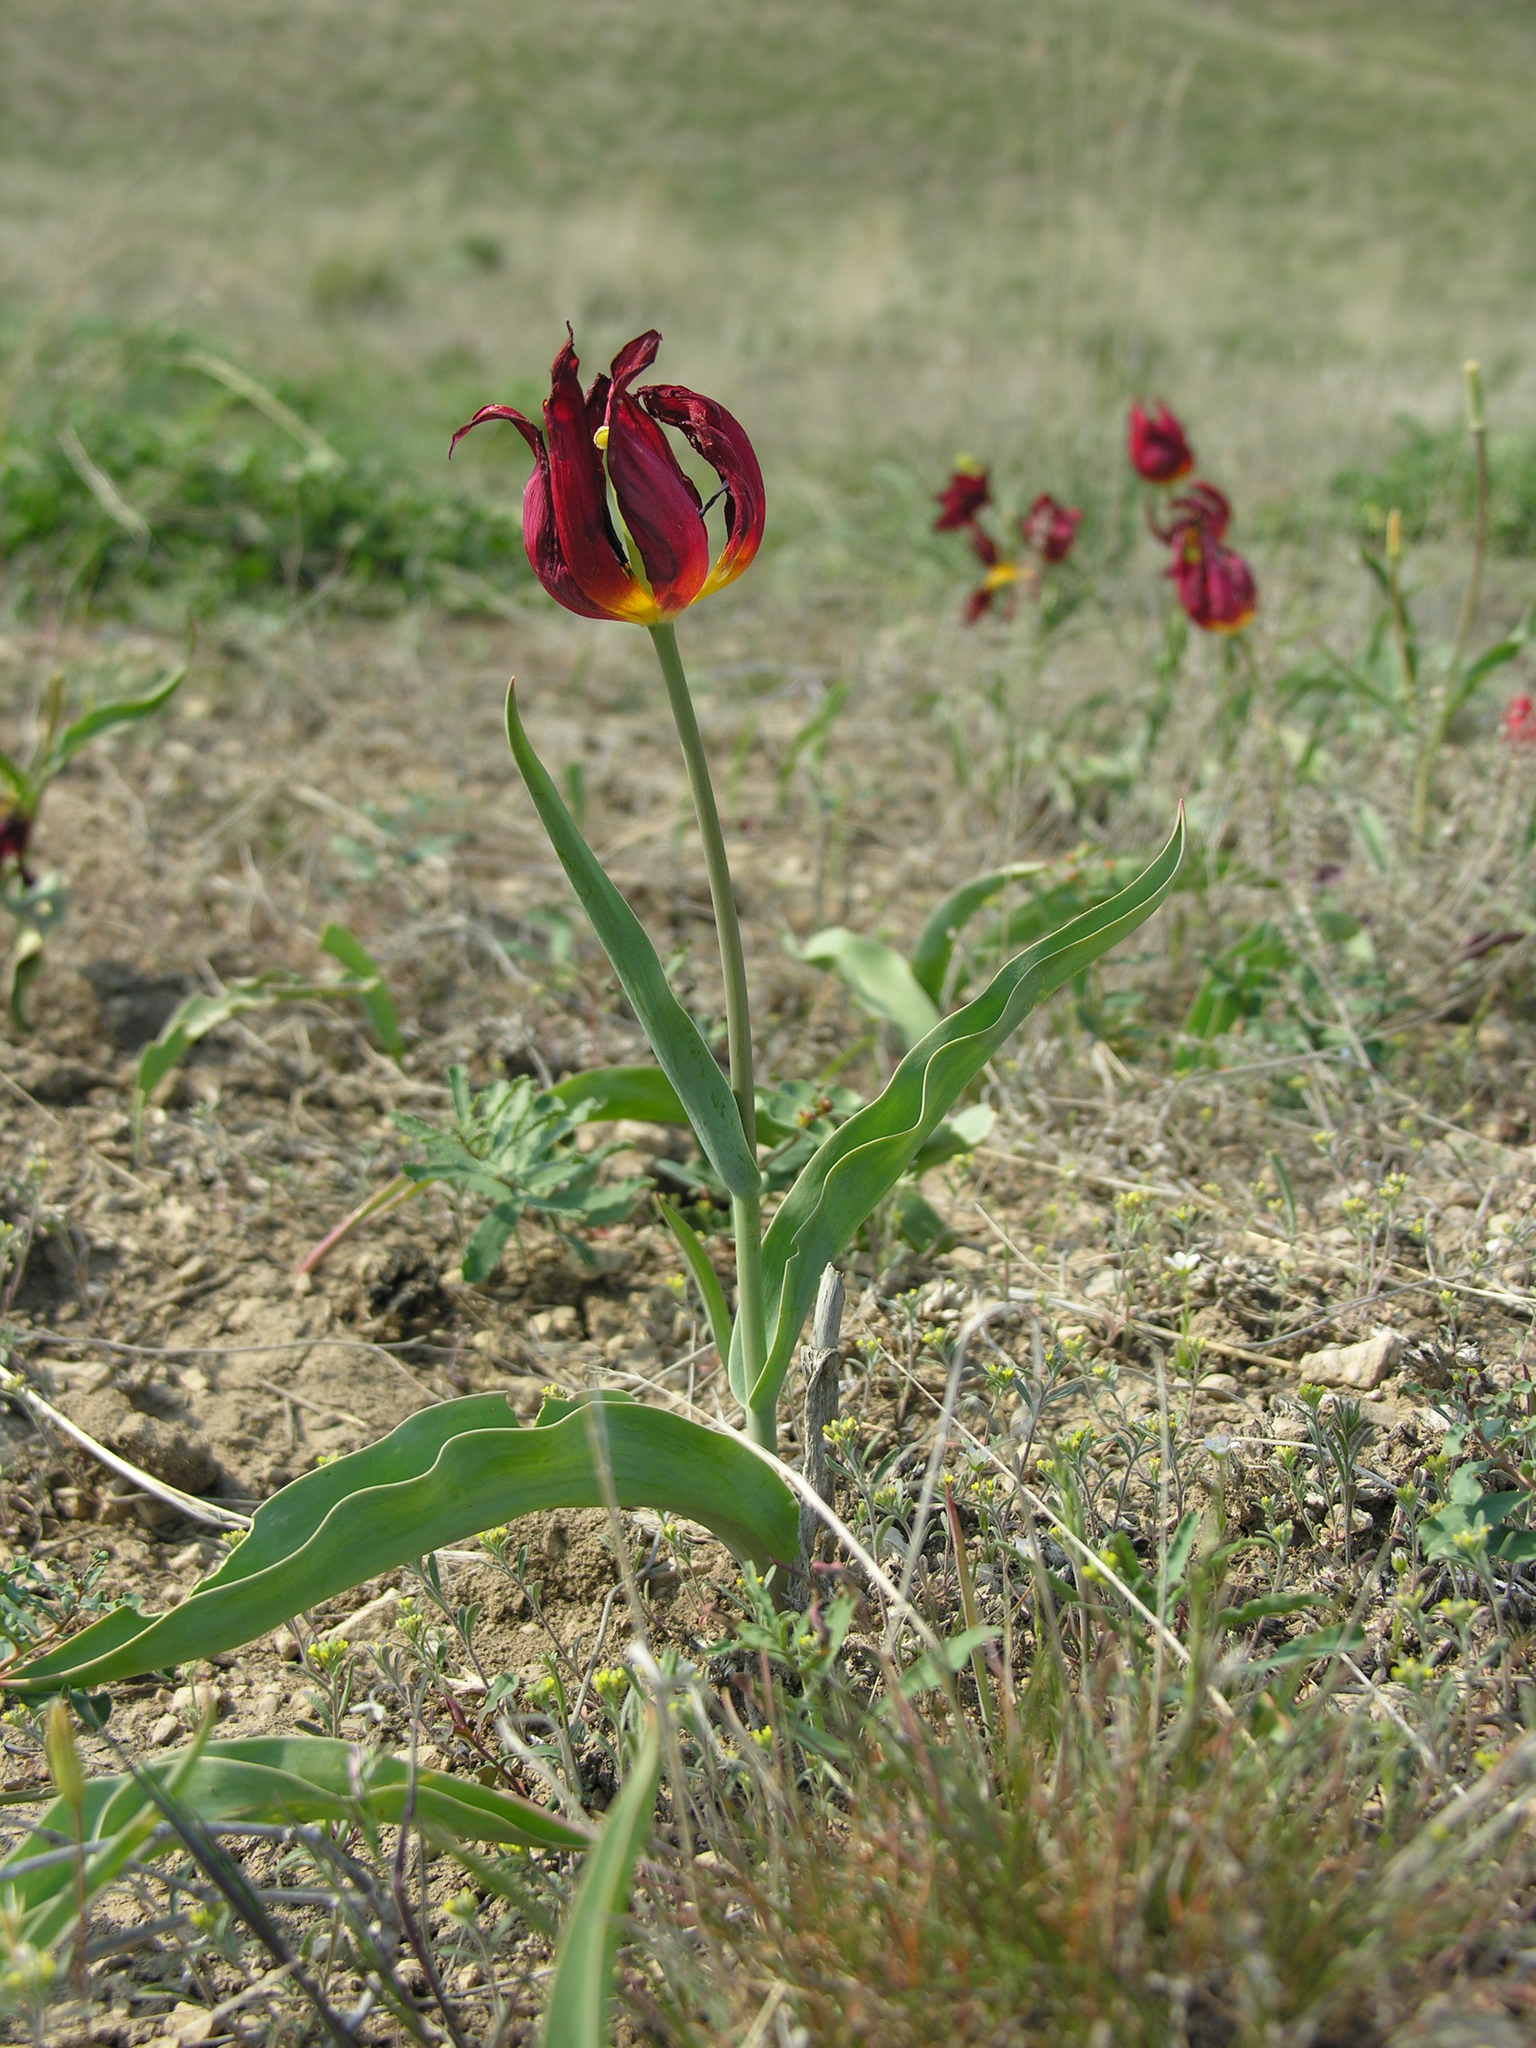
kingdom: Plantae
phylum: Tracheophyta
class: Liliopsida
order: Liliales
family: Liliaceae
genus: Tulipa
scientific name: Tulipa suaveolens
